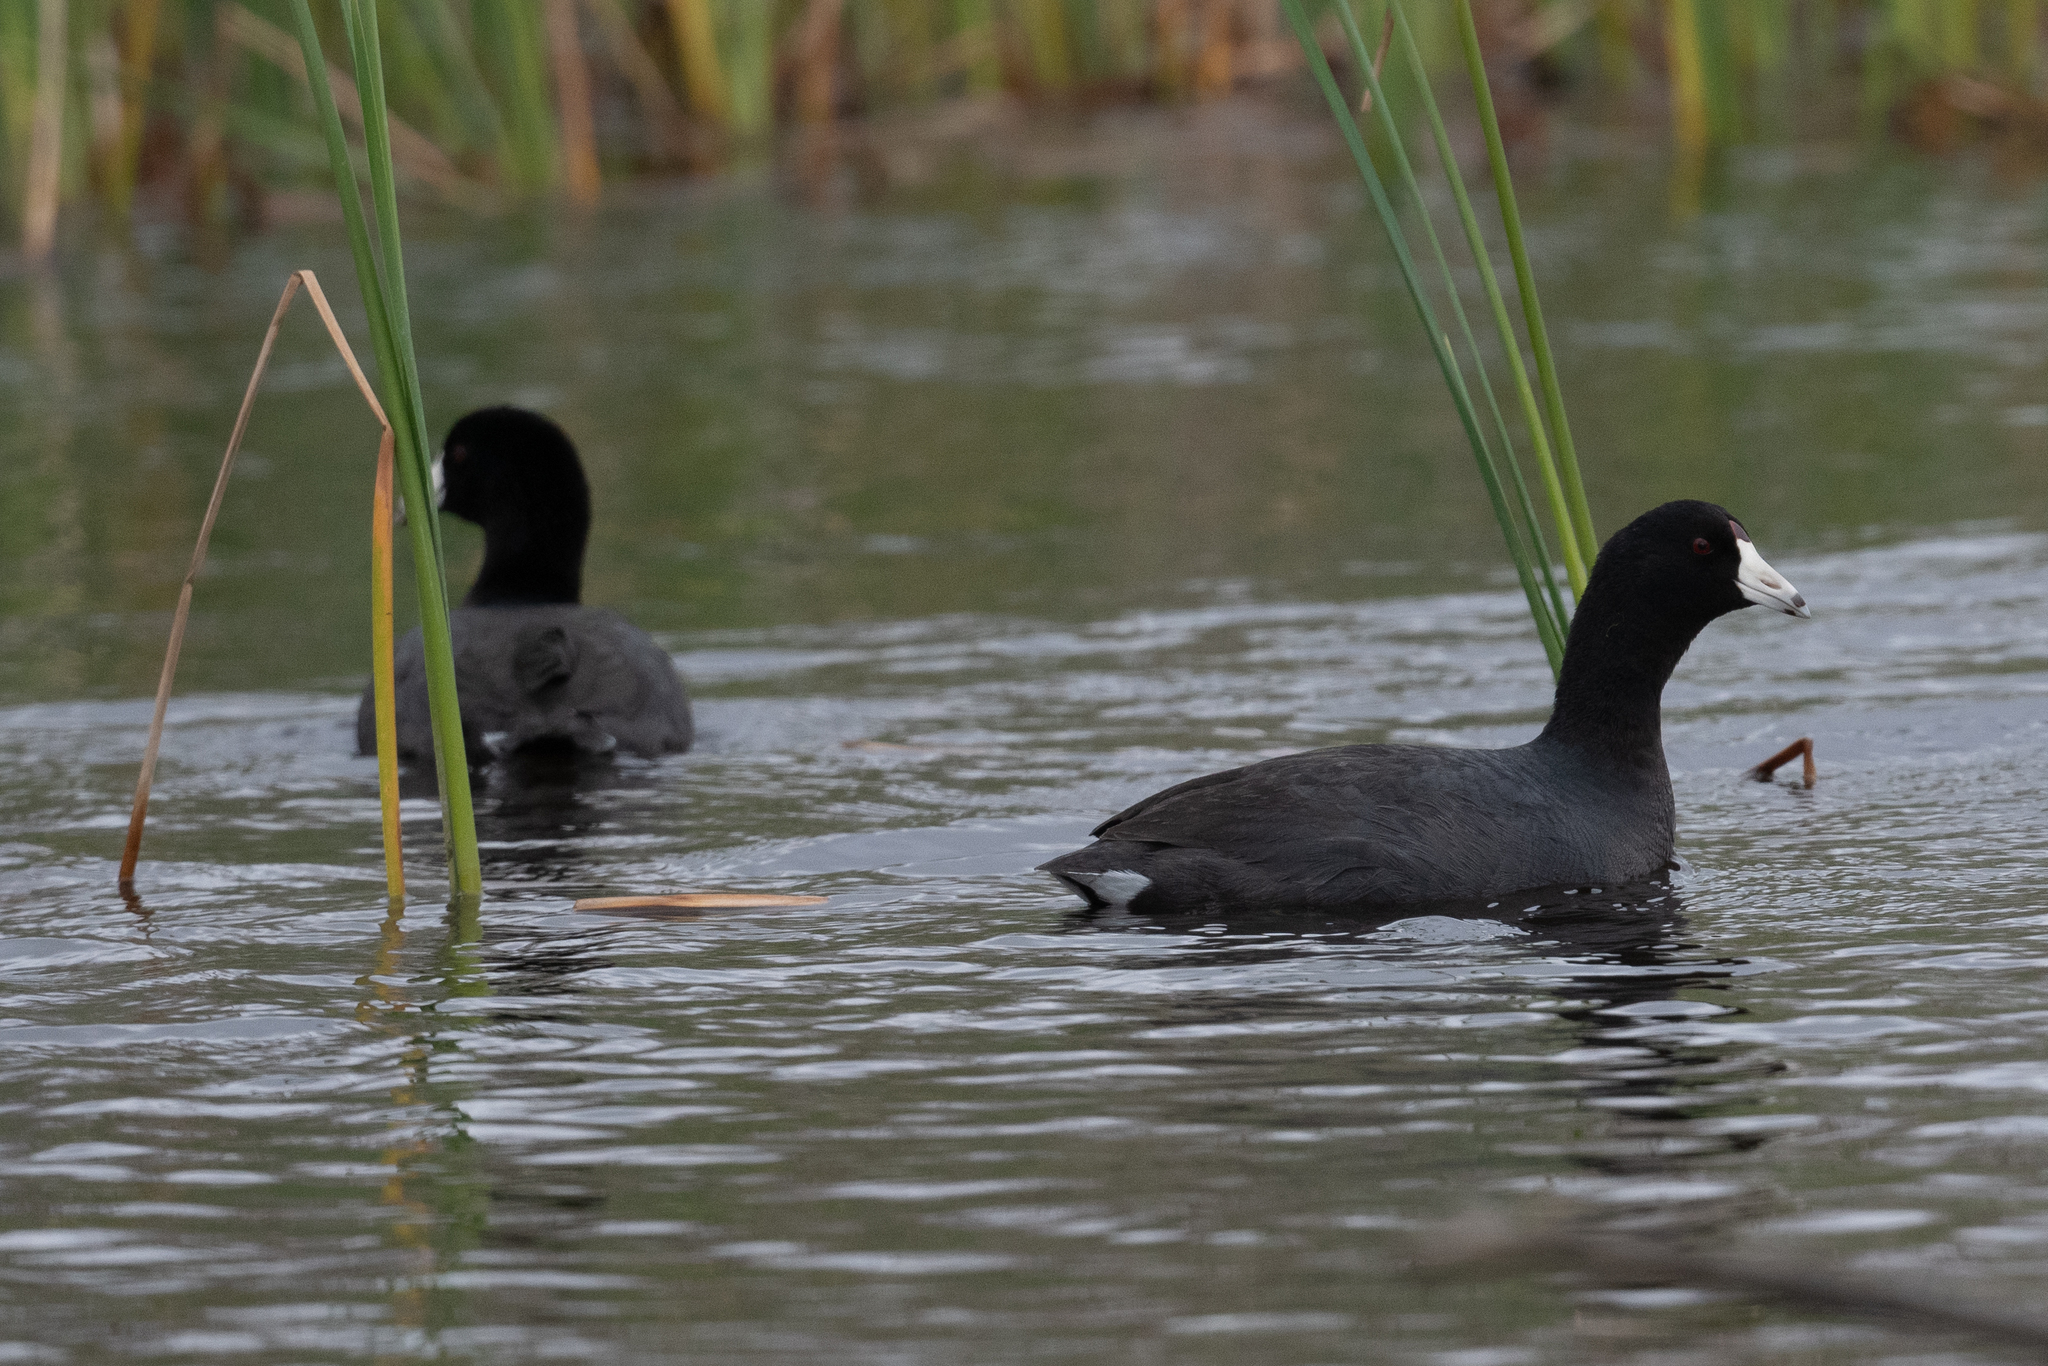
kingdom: Animalia
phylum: Chordata
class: Aves
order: Gruiformes
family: Rallidae
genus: Fulica
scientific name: Fulica americana
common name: American coot
